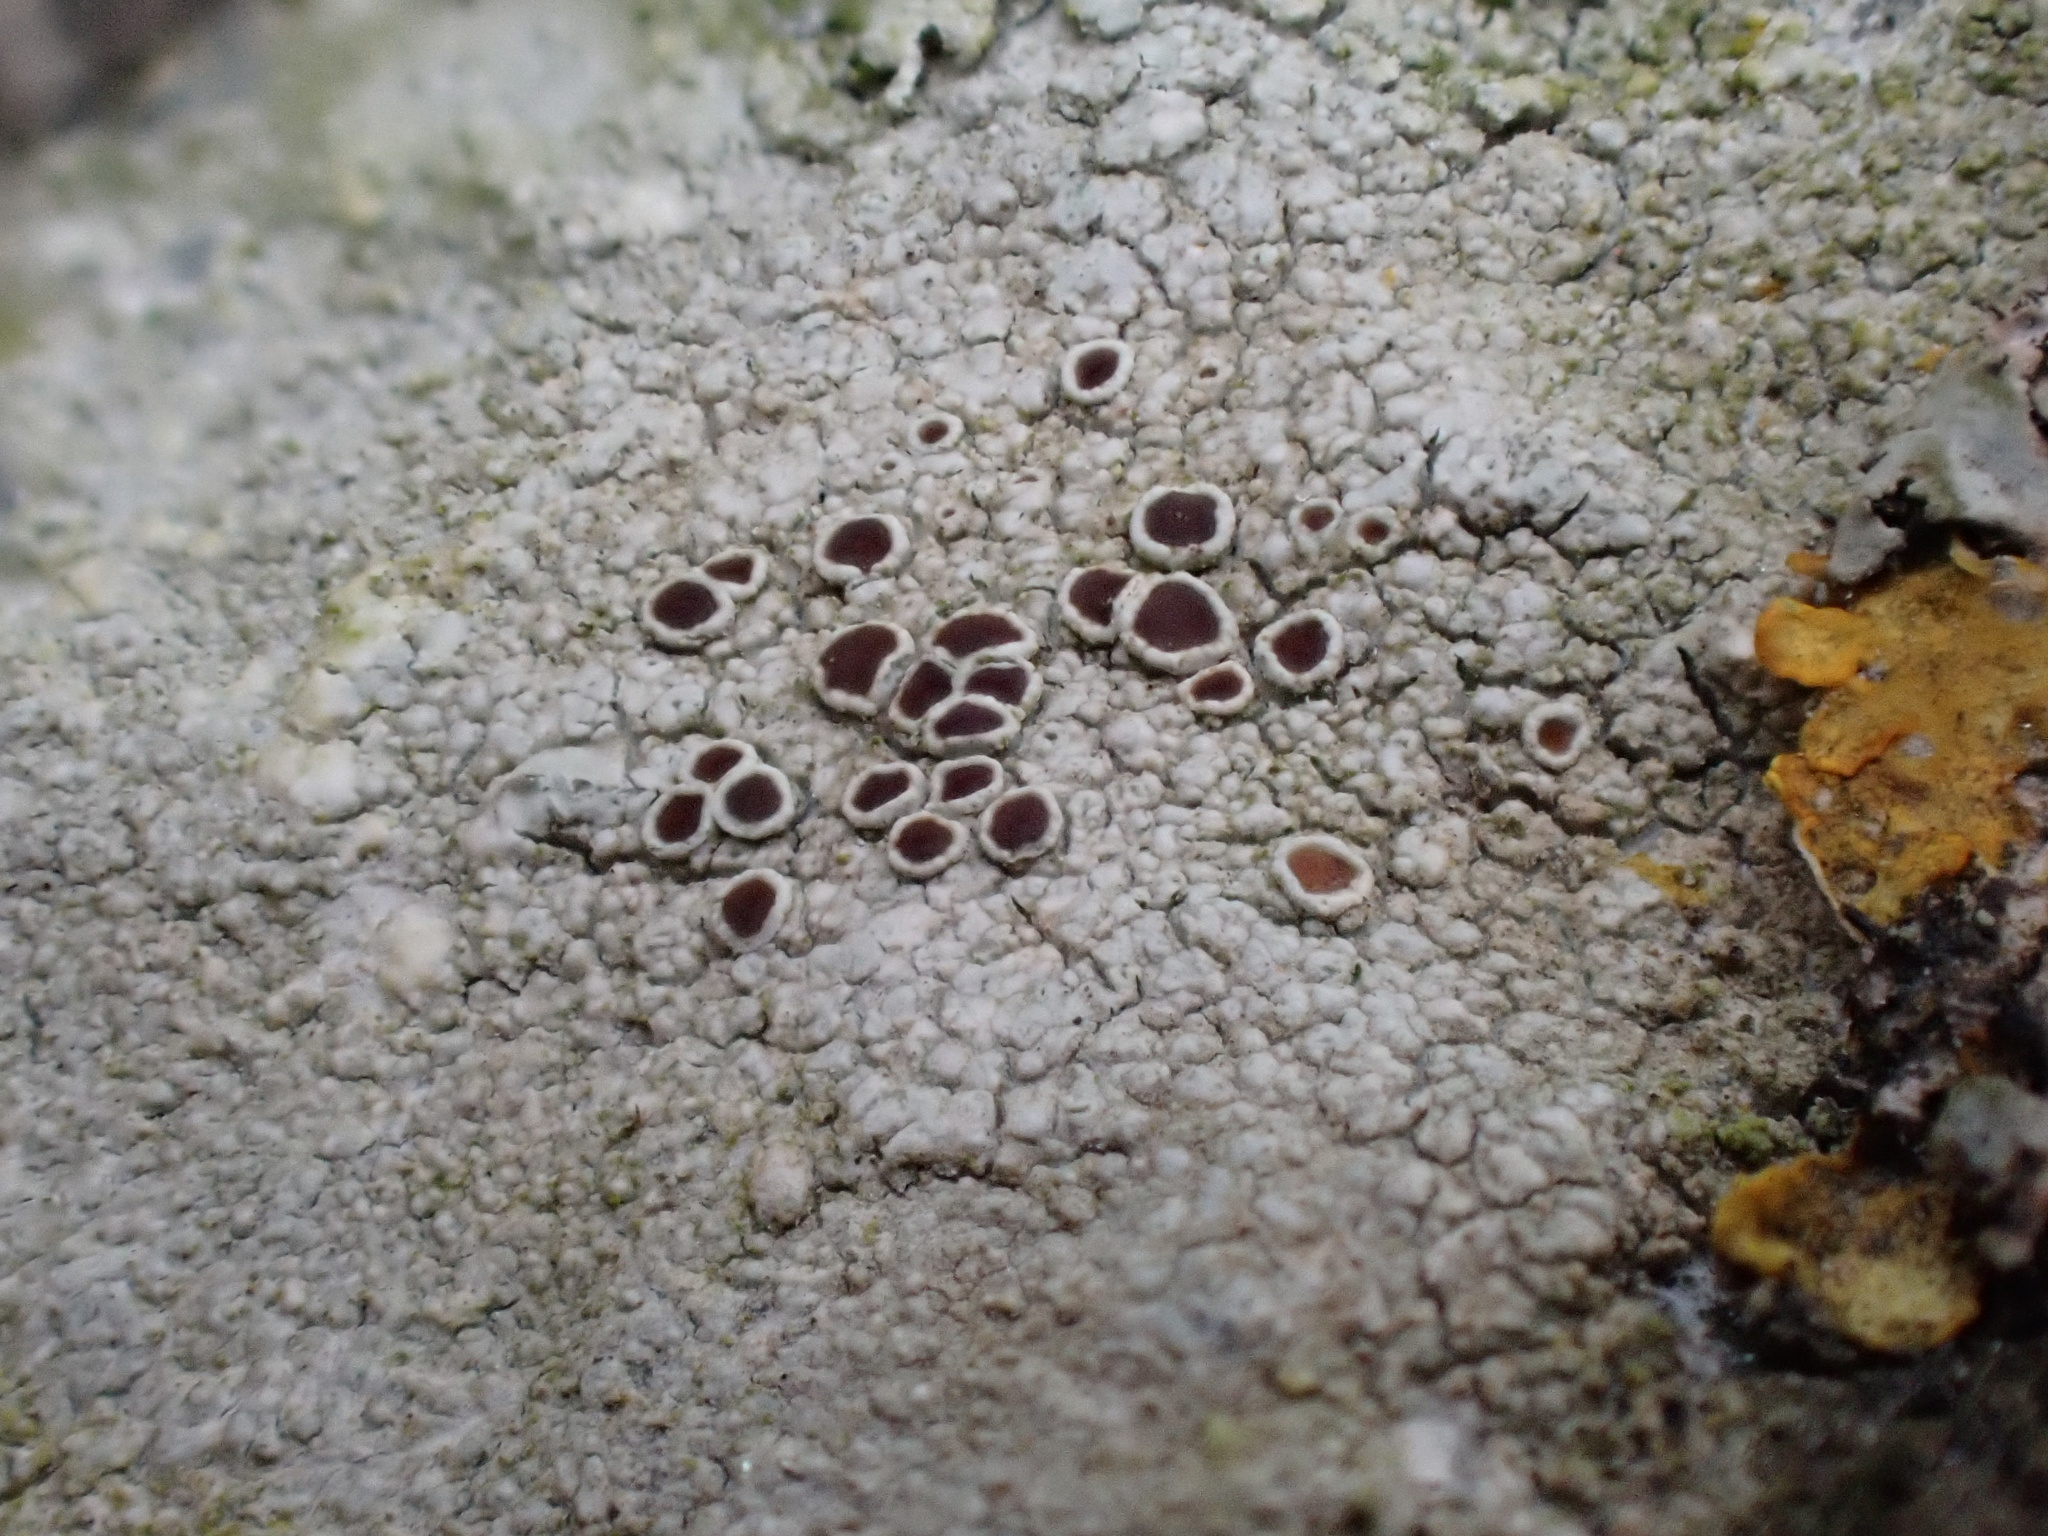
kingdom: Fungi
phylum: Ascomycota
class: Lecanoromycetes
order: Lecanorales
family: Lecanoraceae
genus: Lecanora
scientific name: Lecanora campestris
